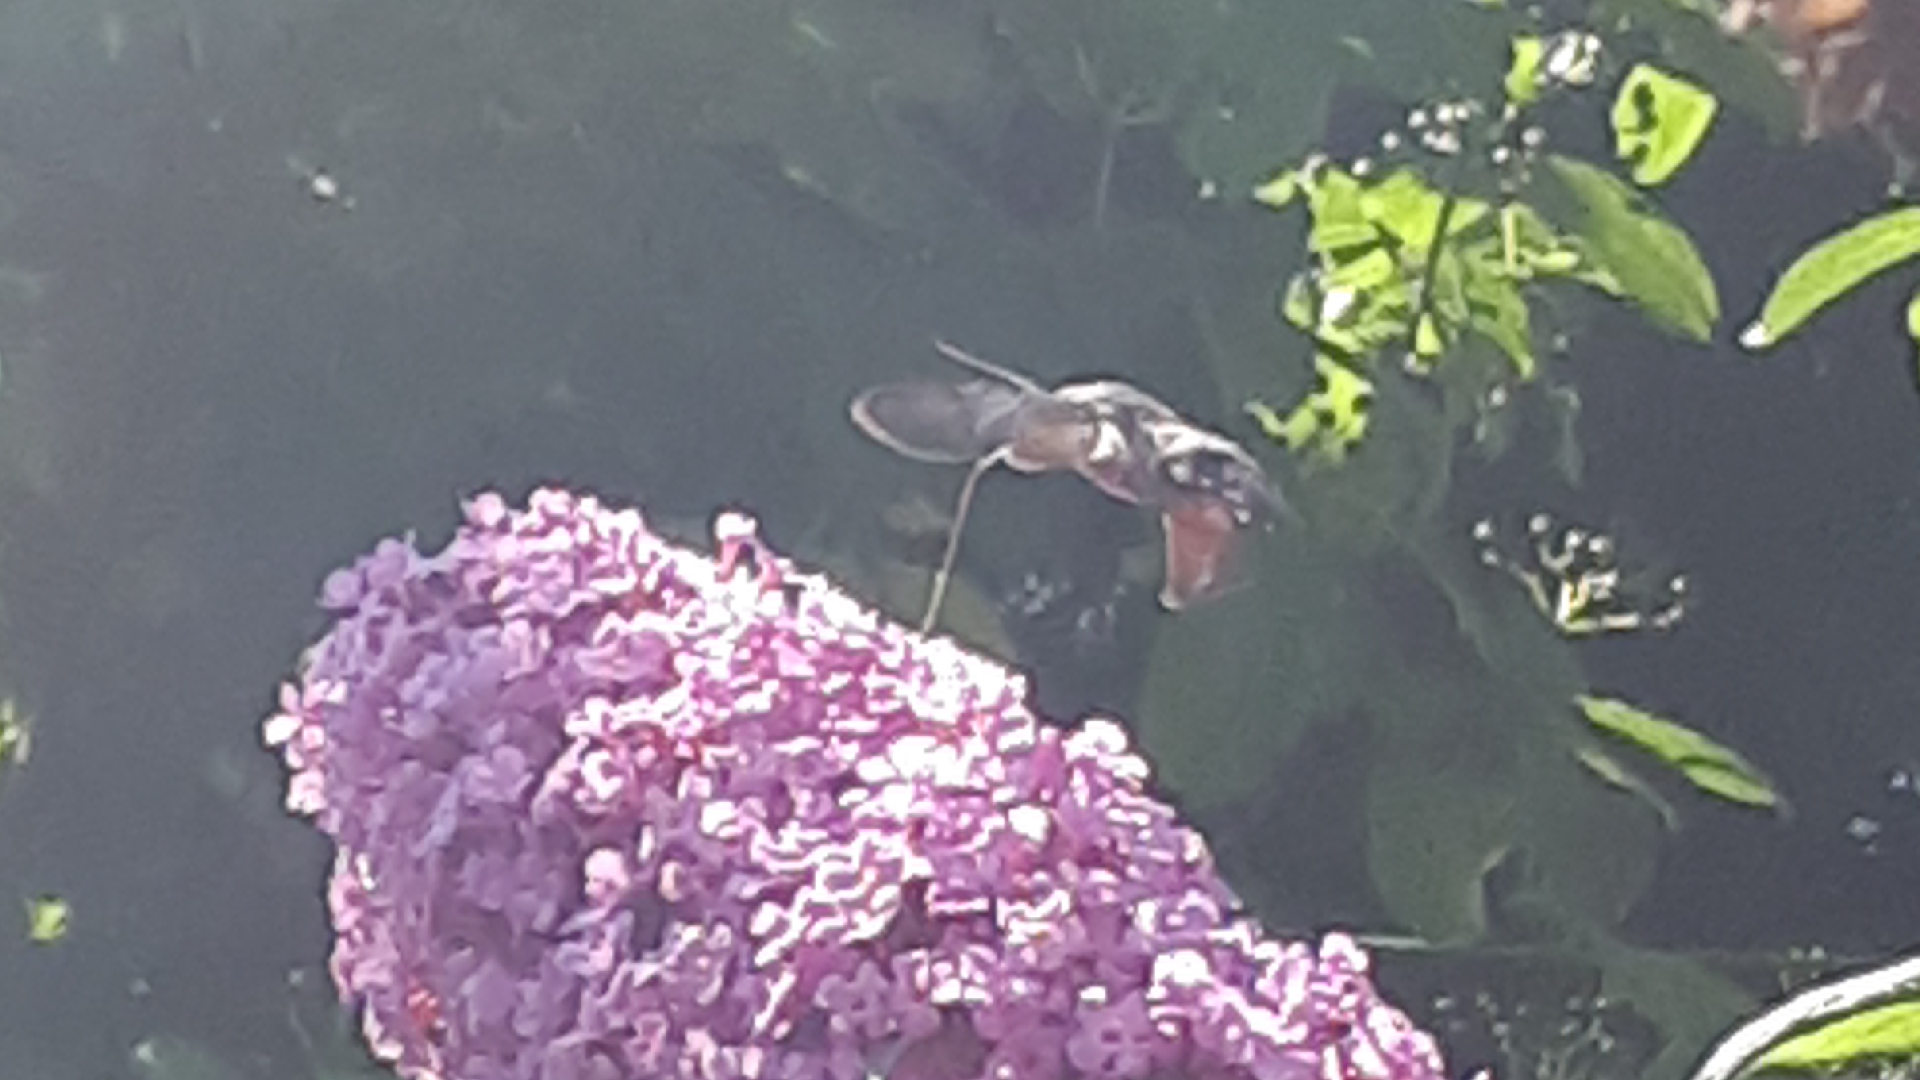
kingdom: Animalia
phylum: Arthropoda
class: Insecta
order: Lepidoptera
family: Sphingidae
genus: Macroglossum
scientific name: Macroglossum stellatarum
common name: Humming-bird hawk-moth
